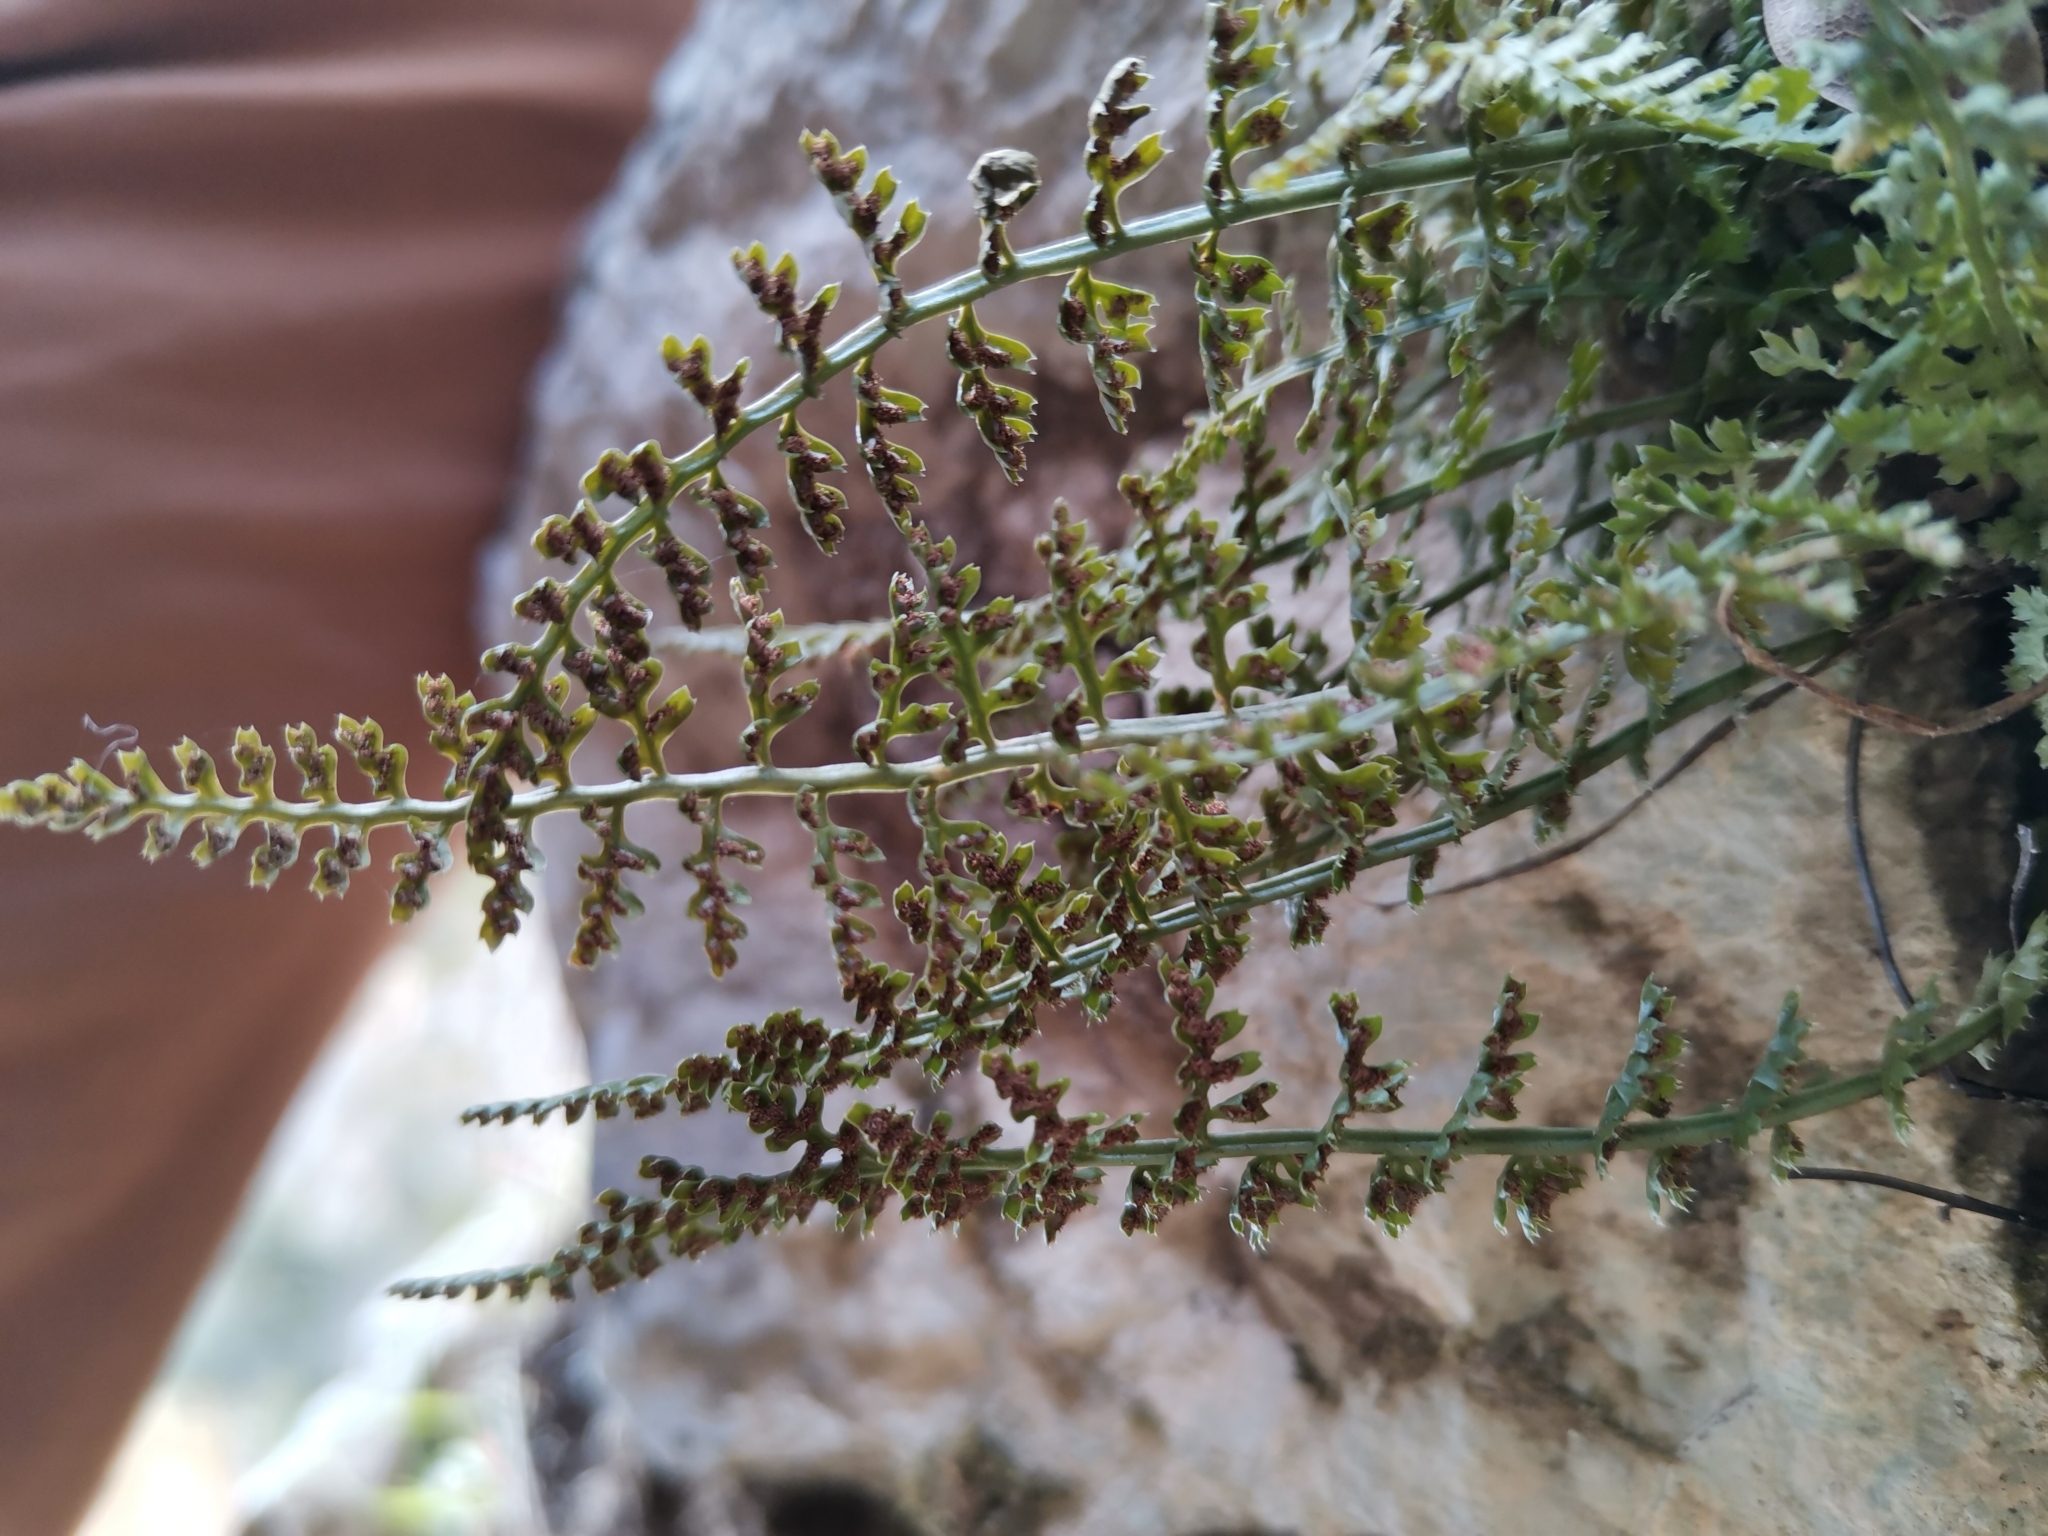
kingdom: Plantae
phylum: Tracheophyta
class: Polypodiopsida
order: Polypodiales
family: Aspleniaceae
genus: Asplenium
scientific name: Asplenium fontanum
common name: Fountain spleenwort
